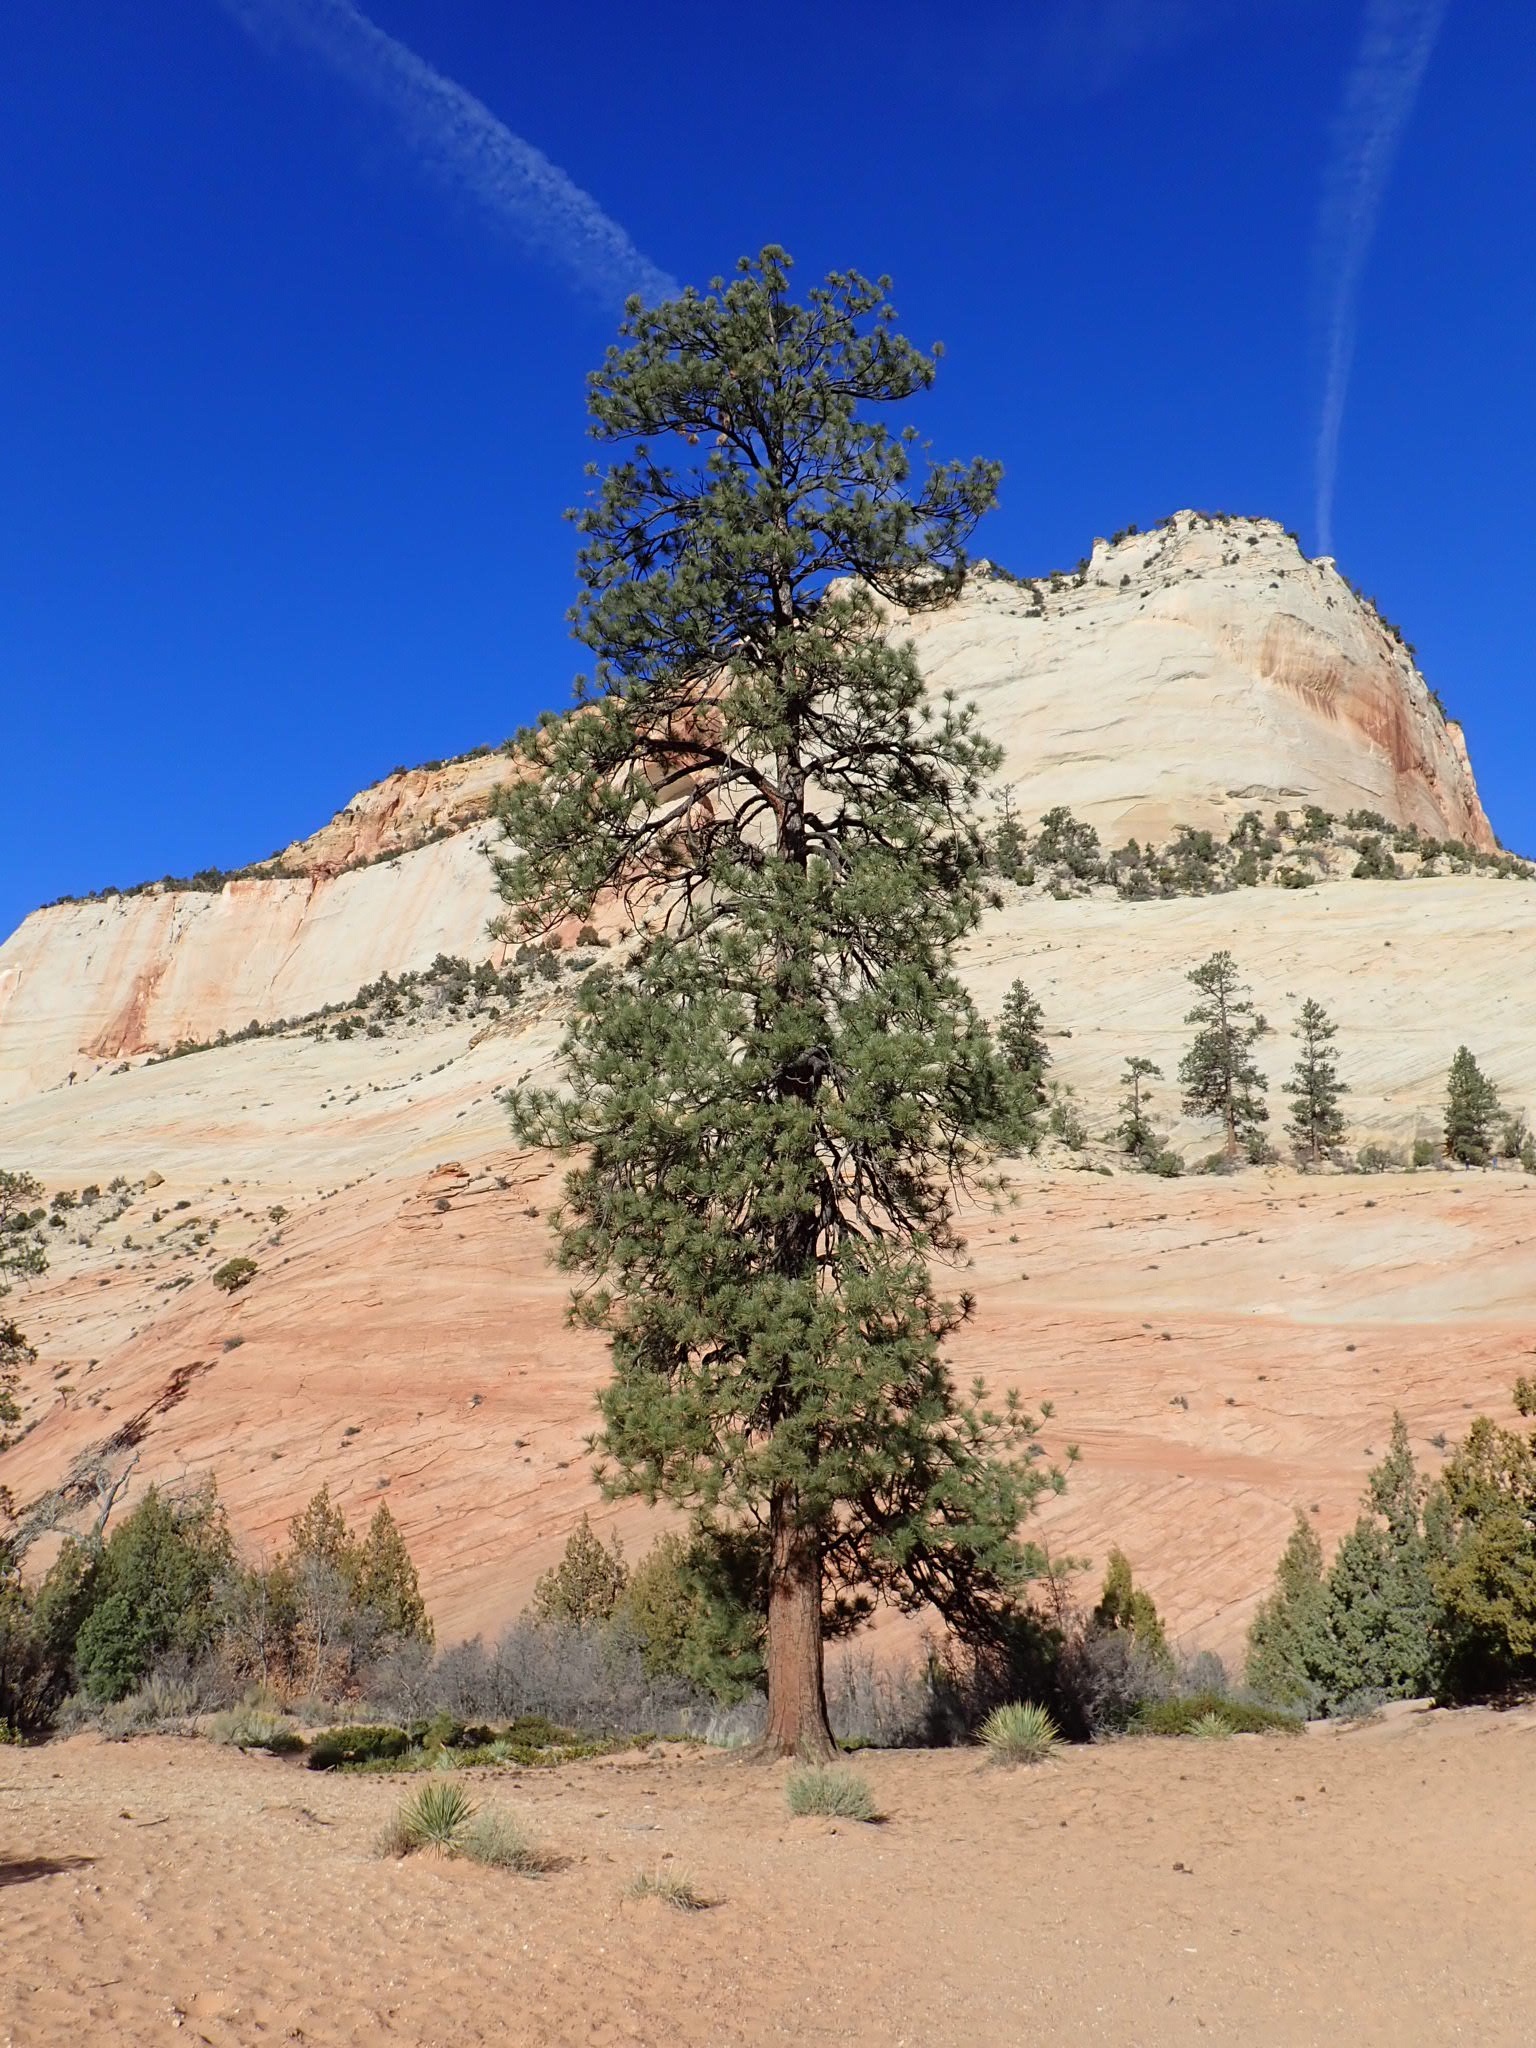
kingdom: Plantae
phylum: Tracheophyta
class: Pinopsida
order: Pinales
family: Pinaceae
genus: Pinus
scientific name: Pinus ponderosa
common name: Western yellow-pine
